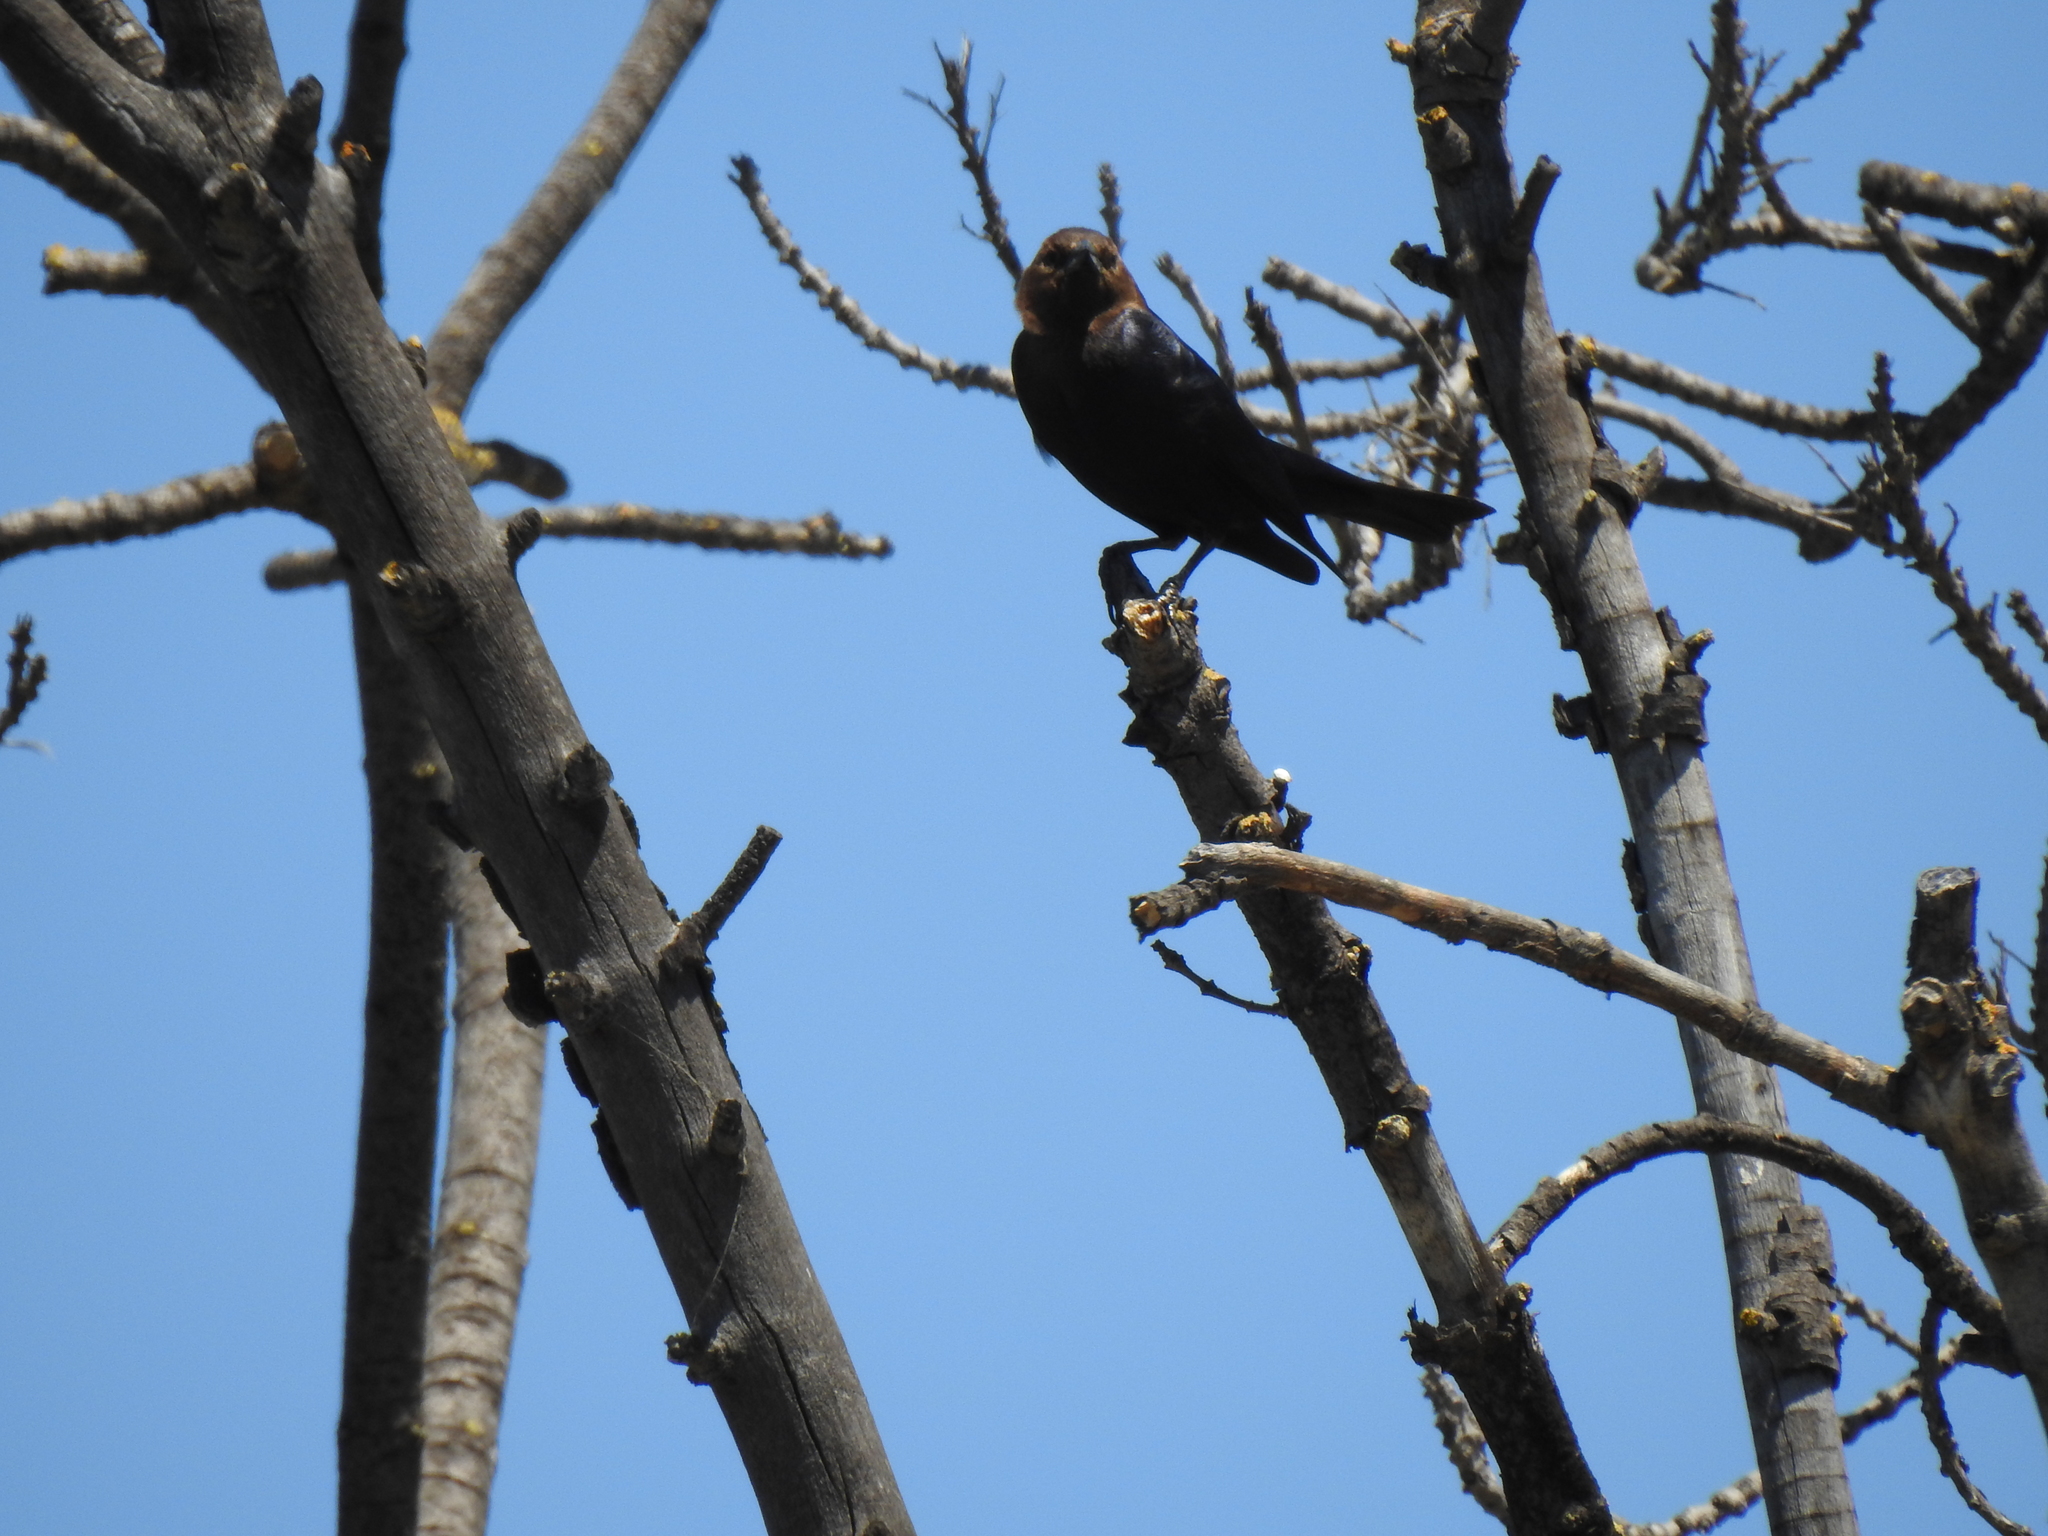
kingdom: Animalia
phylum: Chordata
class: Aves
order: Passeriformes
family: Icteridae
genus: Molothrus
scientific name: Molothrus ater
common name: Brown-headed cowbird
